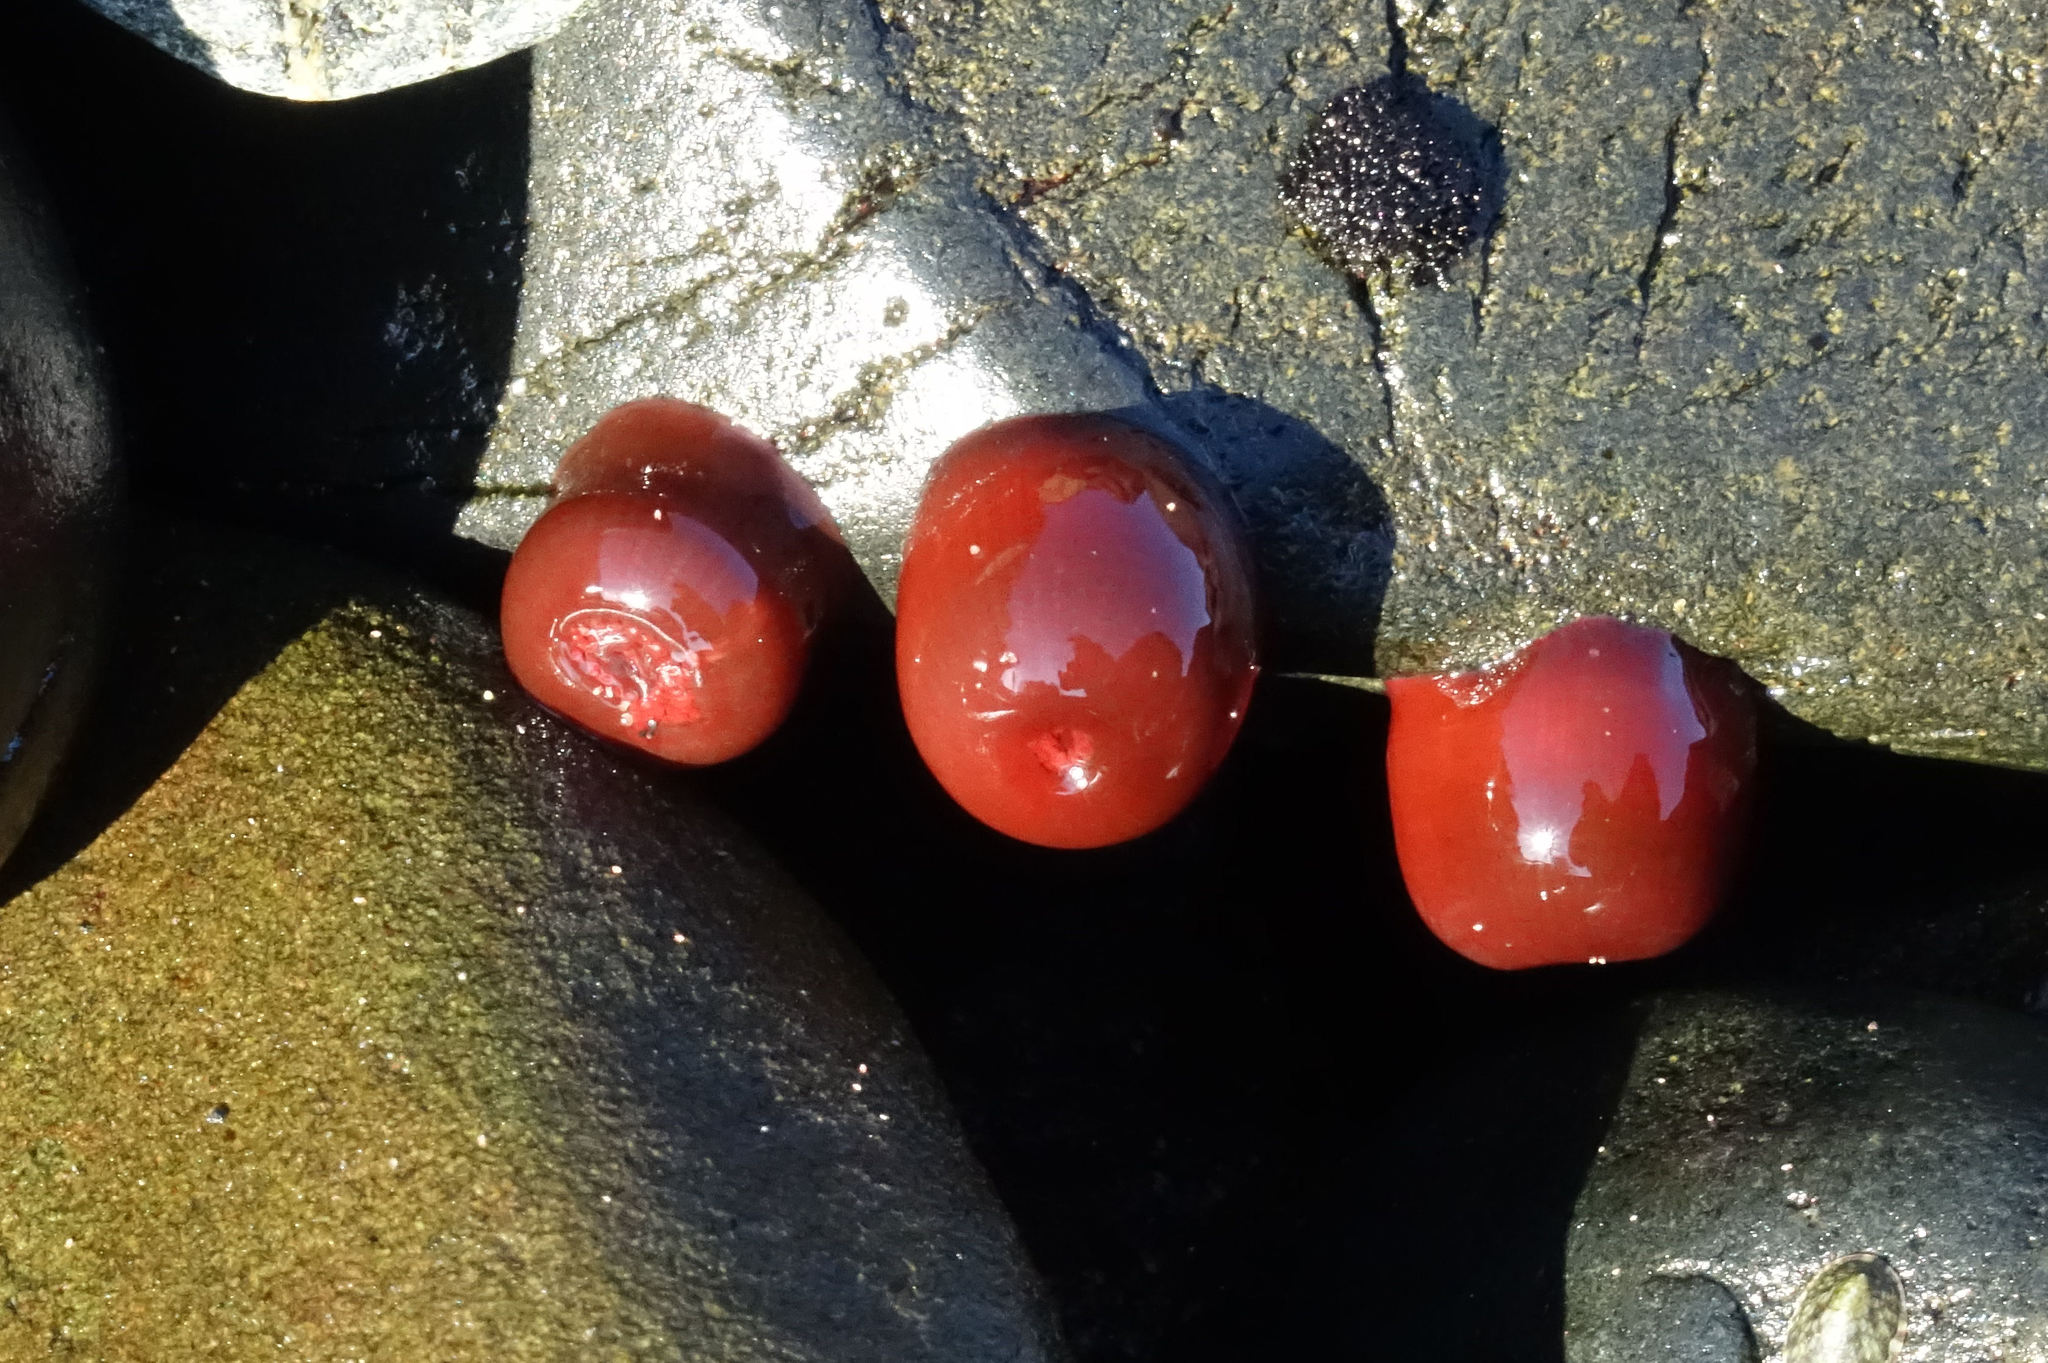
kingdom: Animalia
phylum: Cnidaria
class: Anthozoa
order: Actiniaria
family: Actiniidae
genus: Actinia
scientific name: Actinia tenebrosa
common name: Waratah anemone
